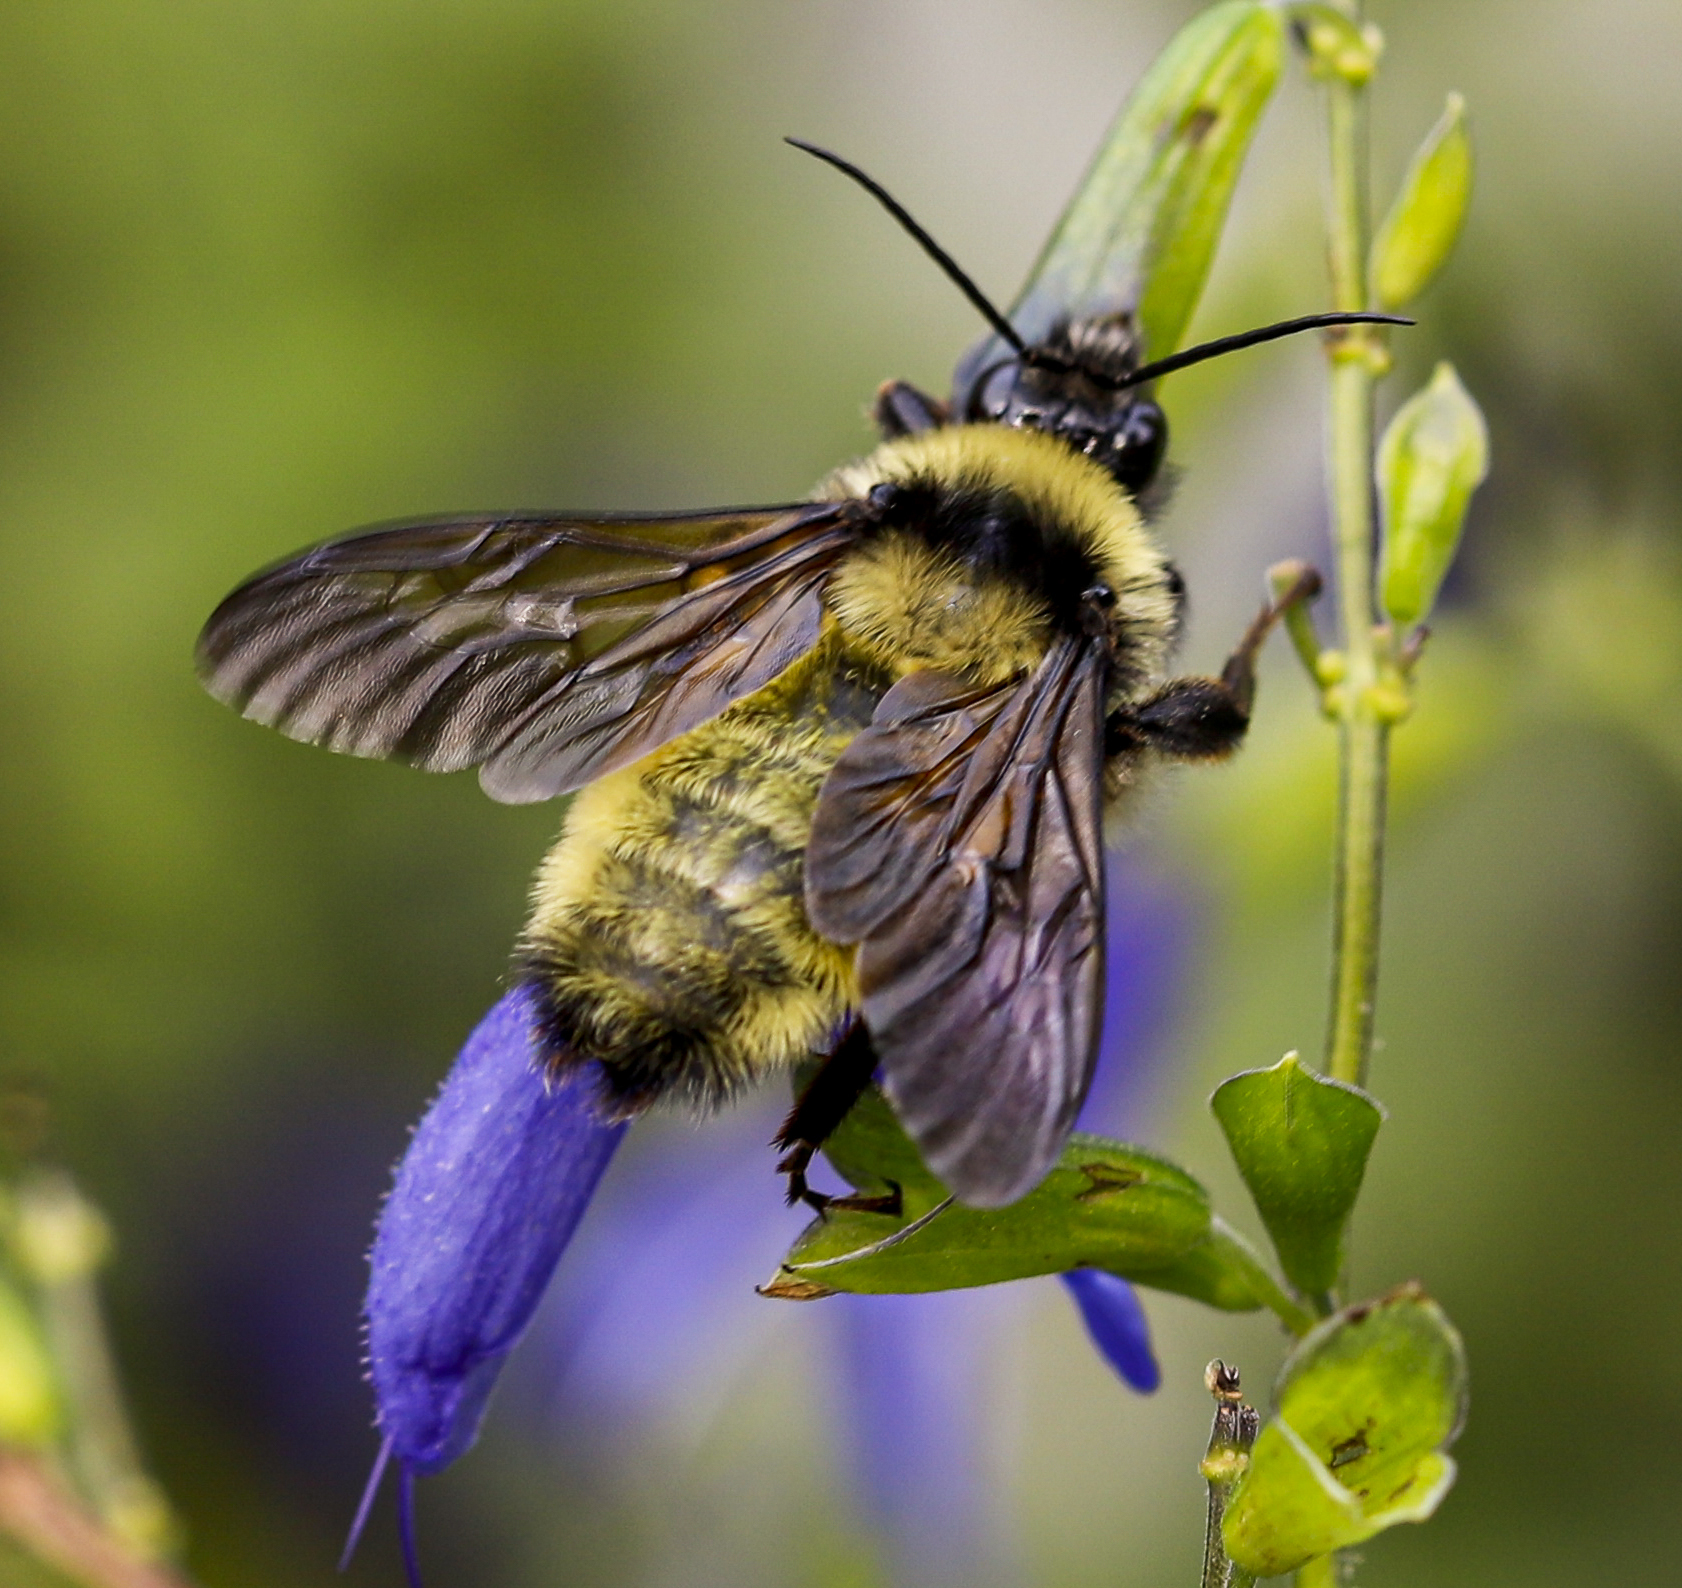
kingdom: Animalia
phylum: Arthropoda
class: Insecta
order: Hymenoptera
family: Apidae
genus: Bombus
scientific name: Bombus pensylvanicus
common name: Bumble bee
